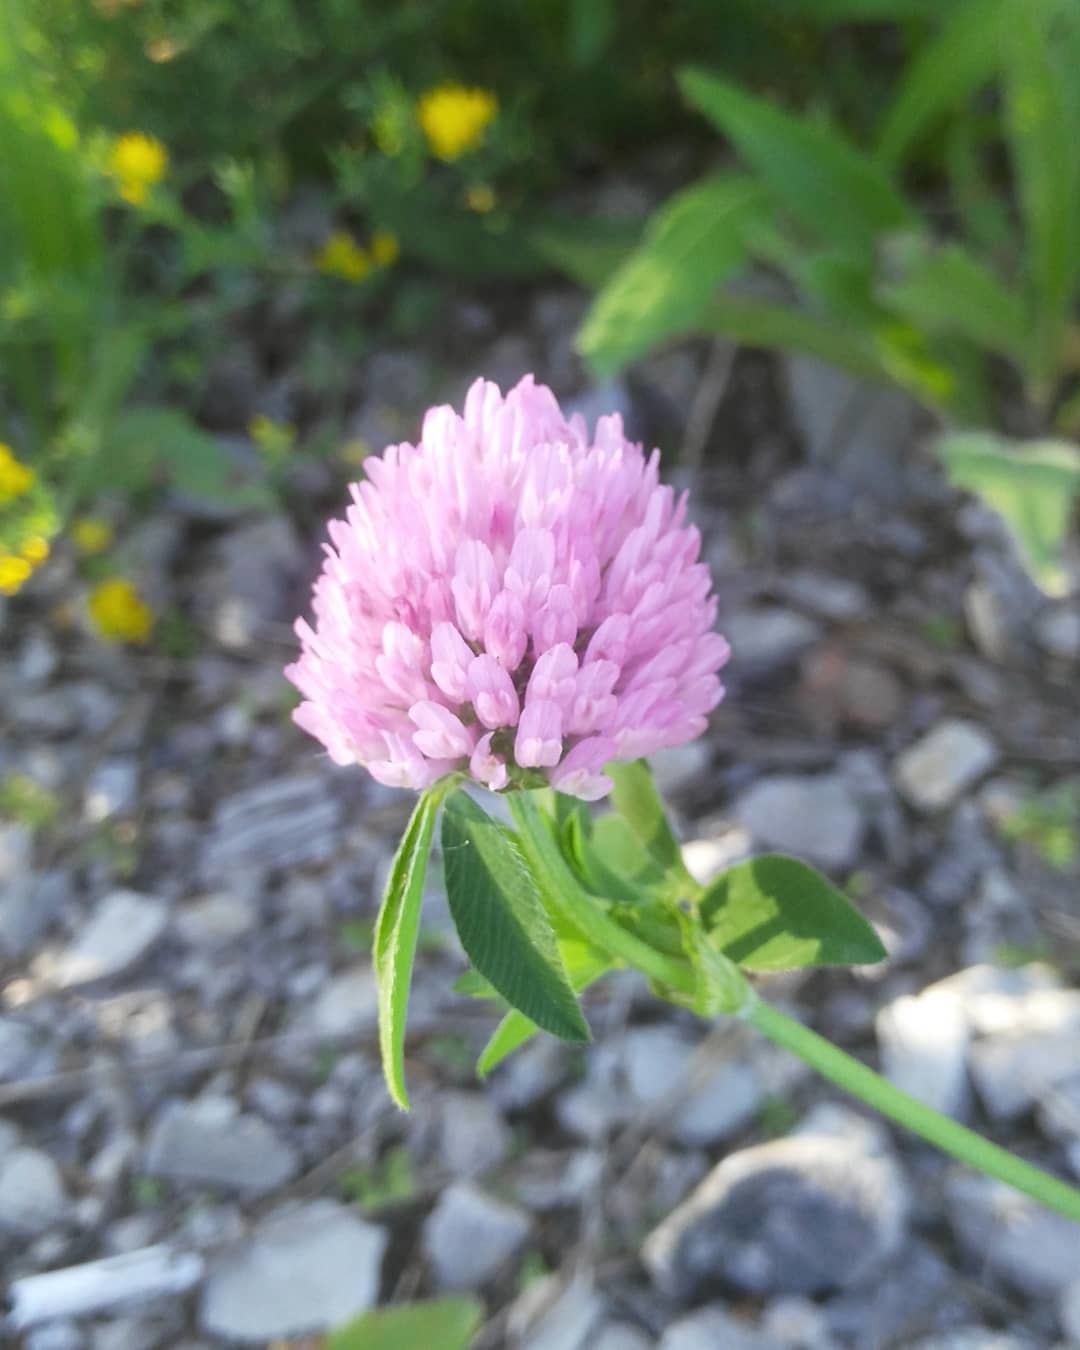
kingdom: Plantae
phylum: Tracheophyta
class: Magnoliopsida
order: Fabales
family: Fabaceae
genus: Trifolium
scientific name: Trifolium pratense
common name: Red clover
